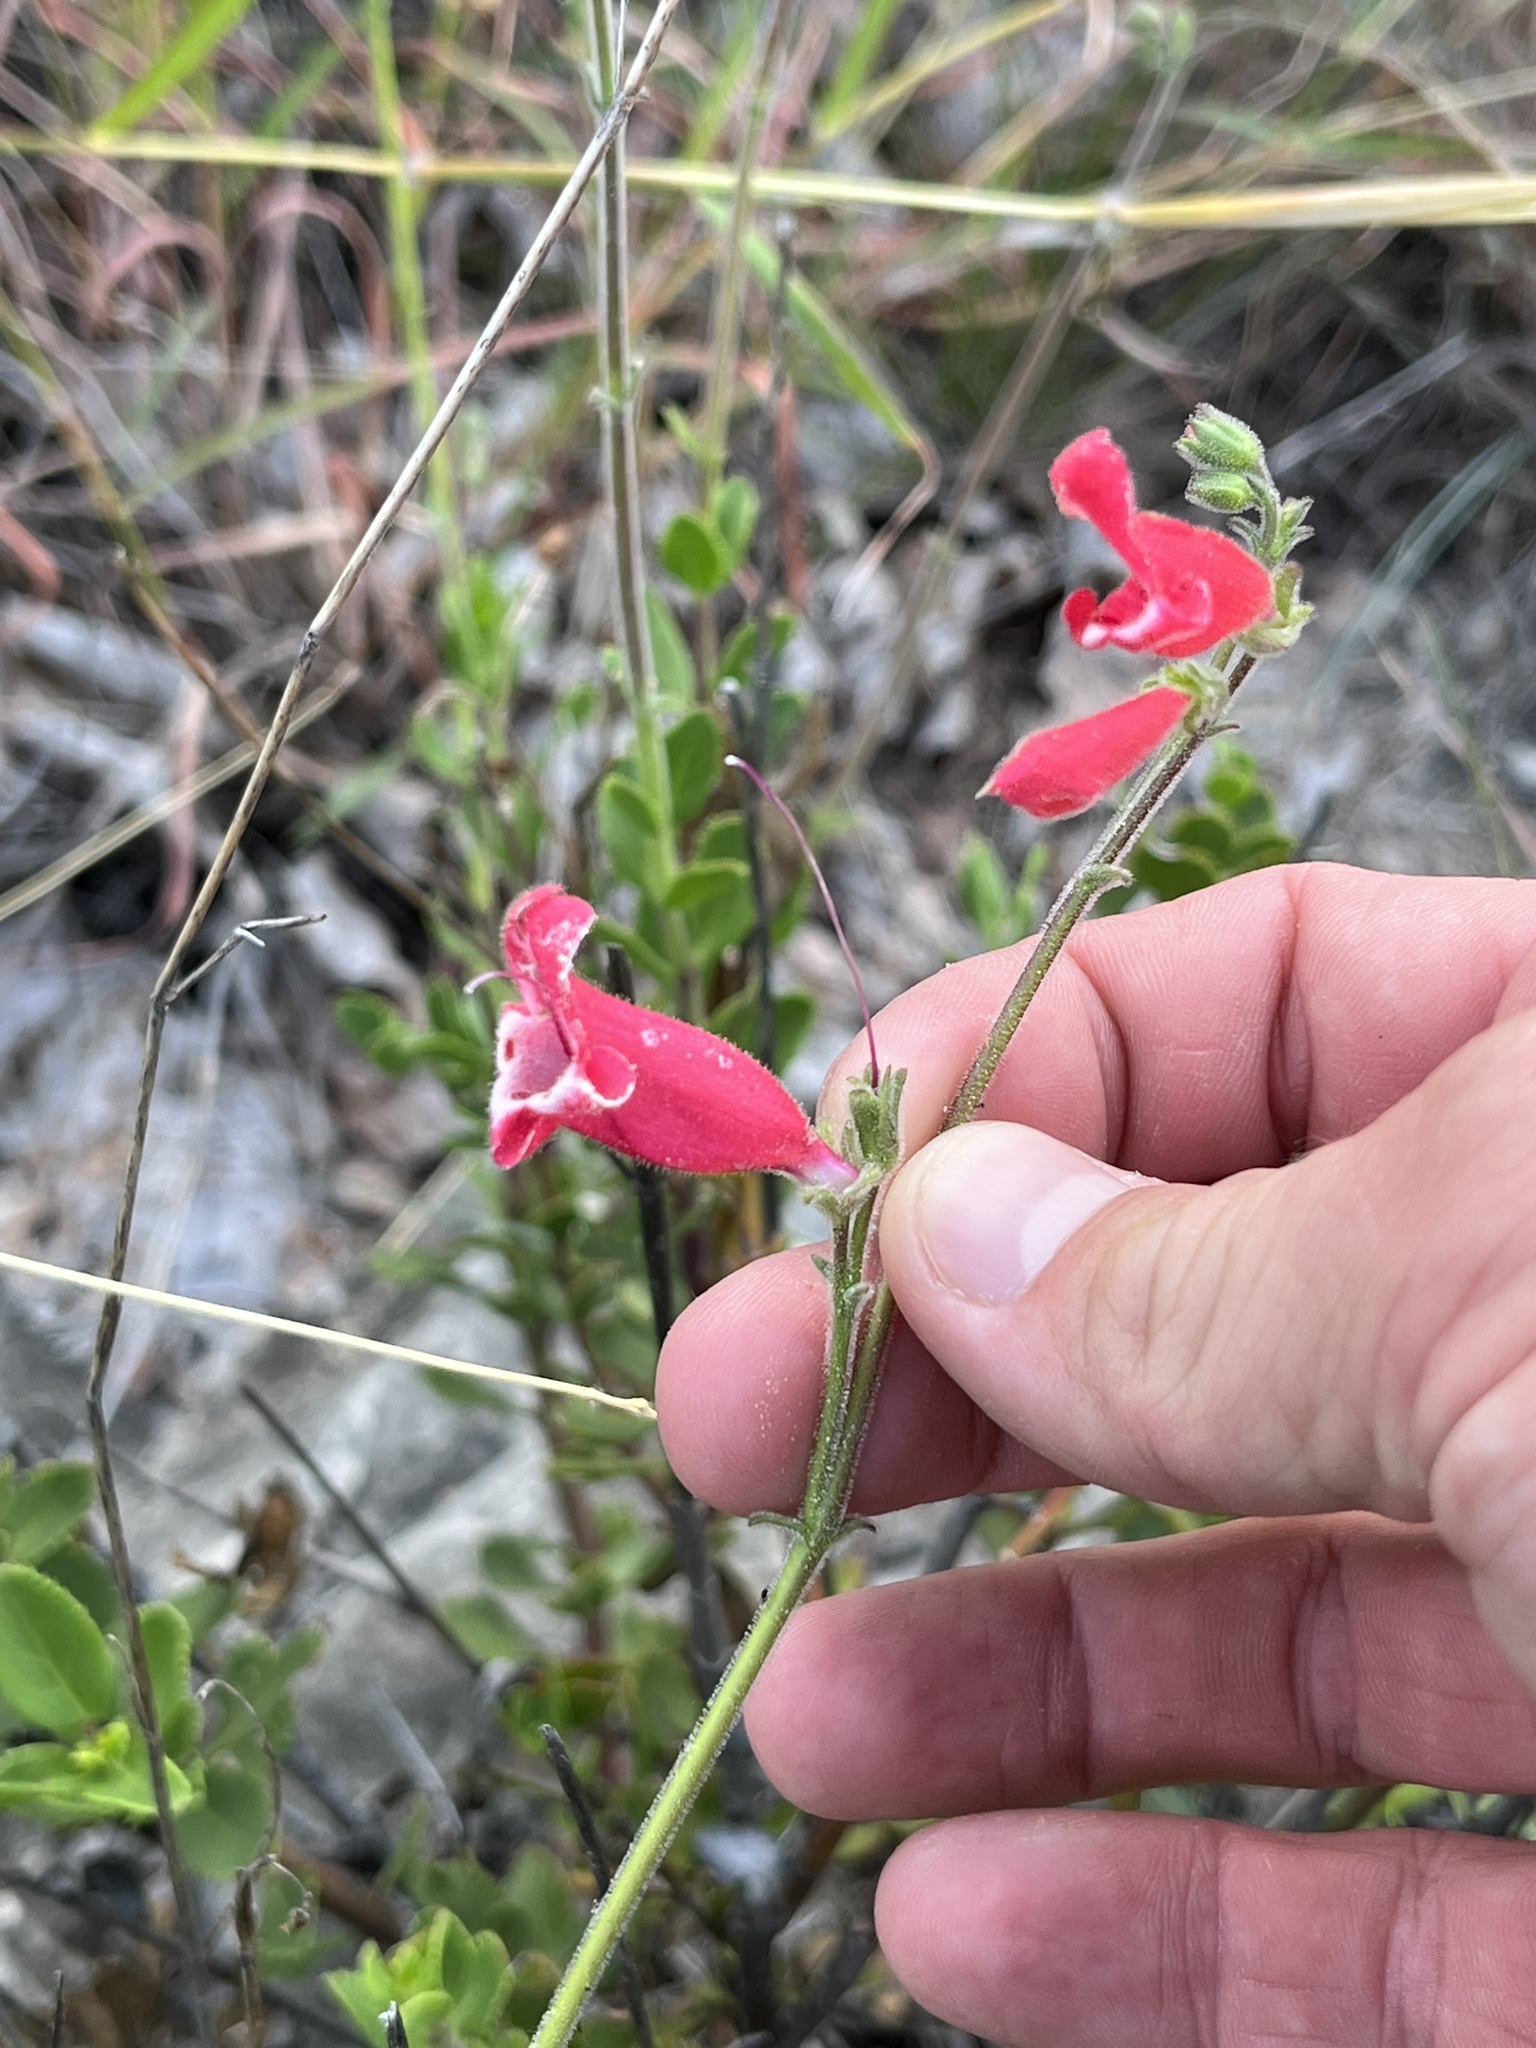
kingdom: Plantae
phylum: Tracheophyta
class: Magnoliopsida
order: Lamiales
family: Plantaginaceae
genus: Penstemon
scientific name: Penstemon baccharifolius
